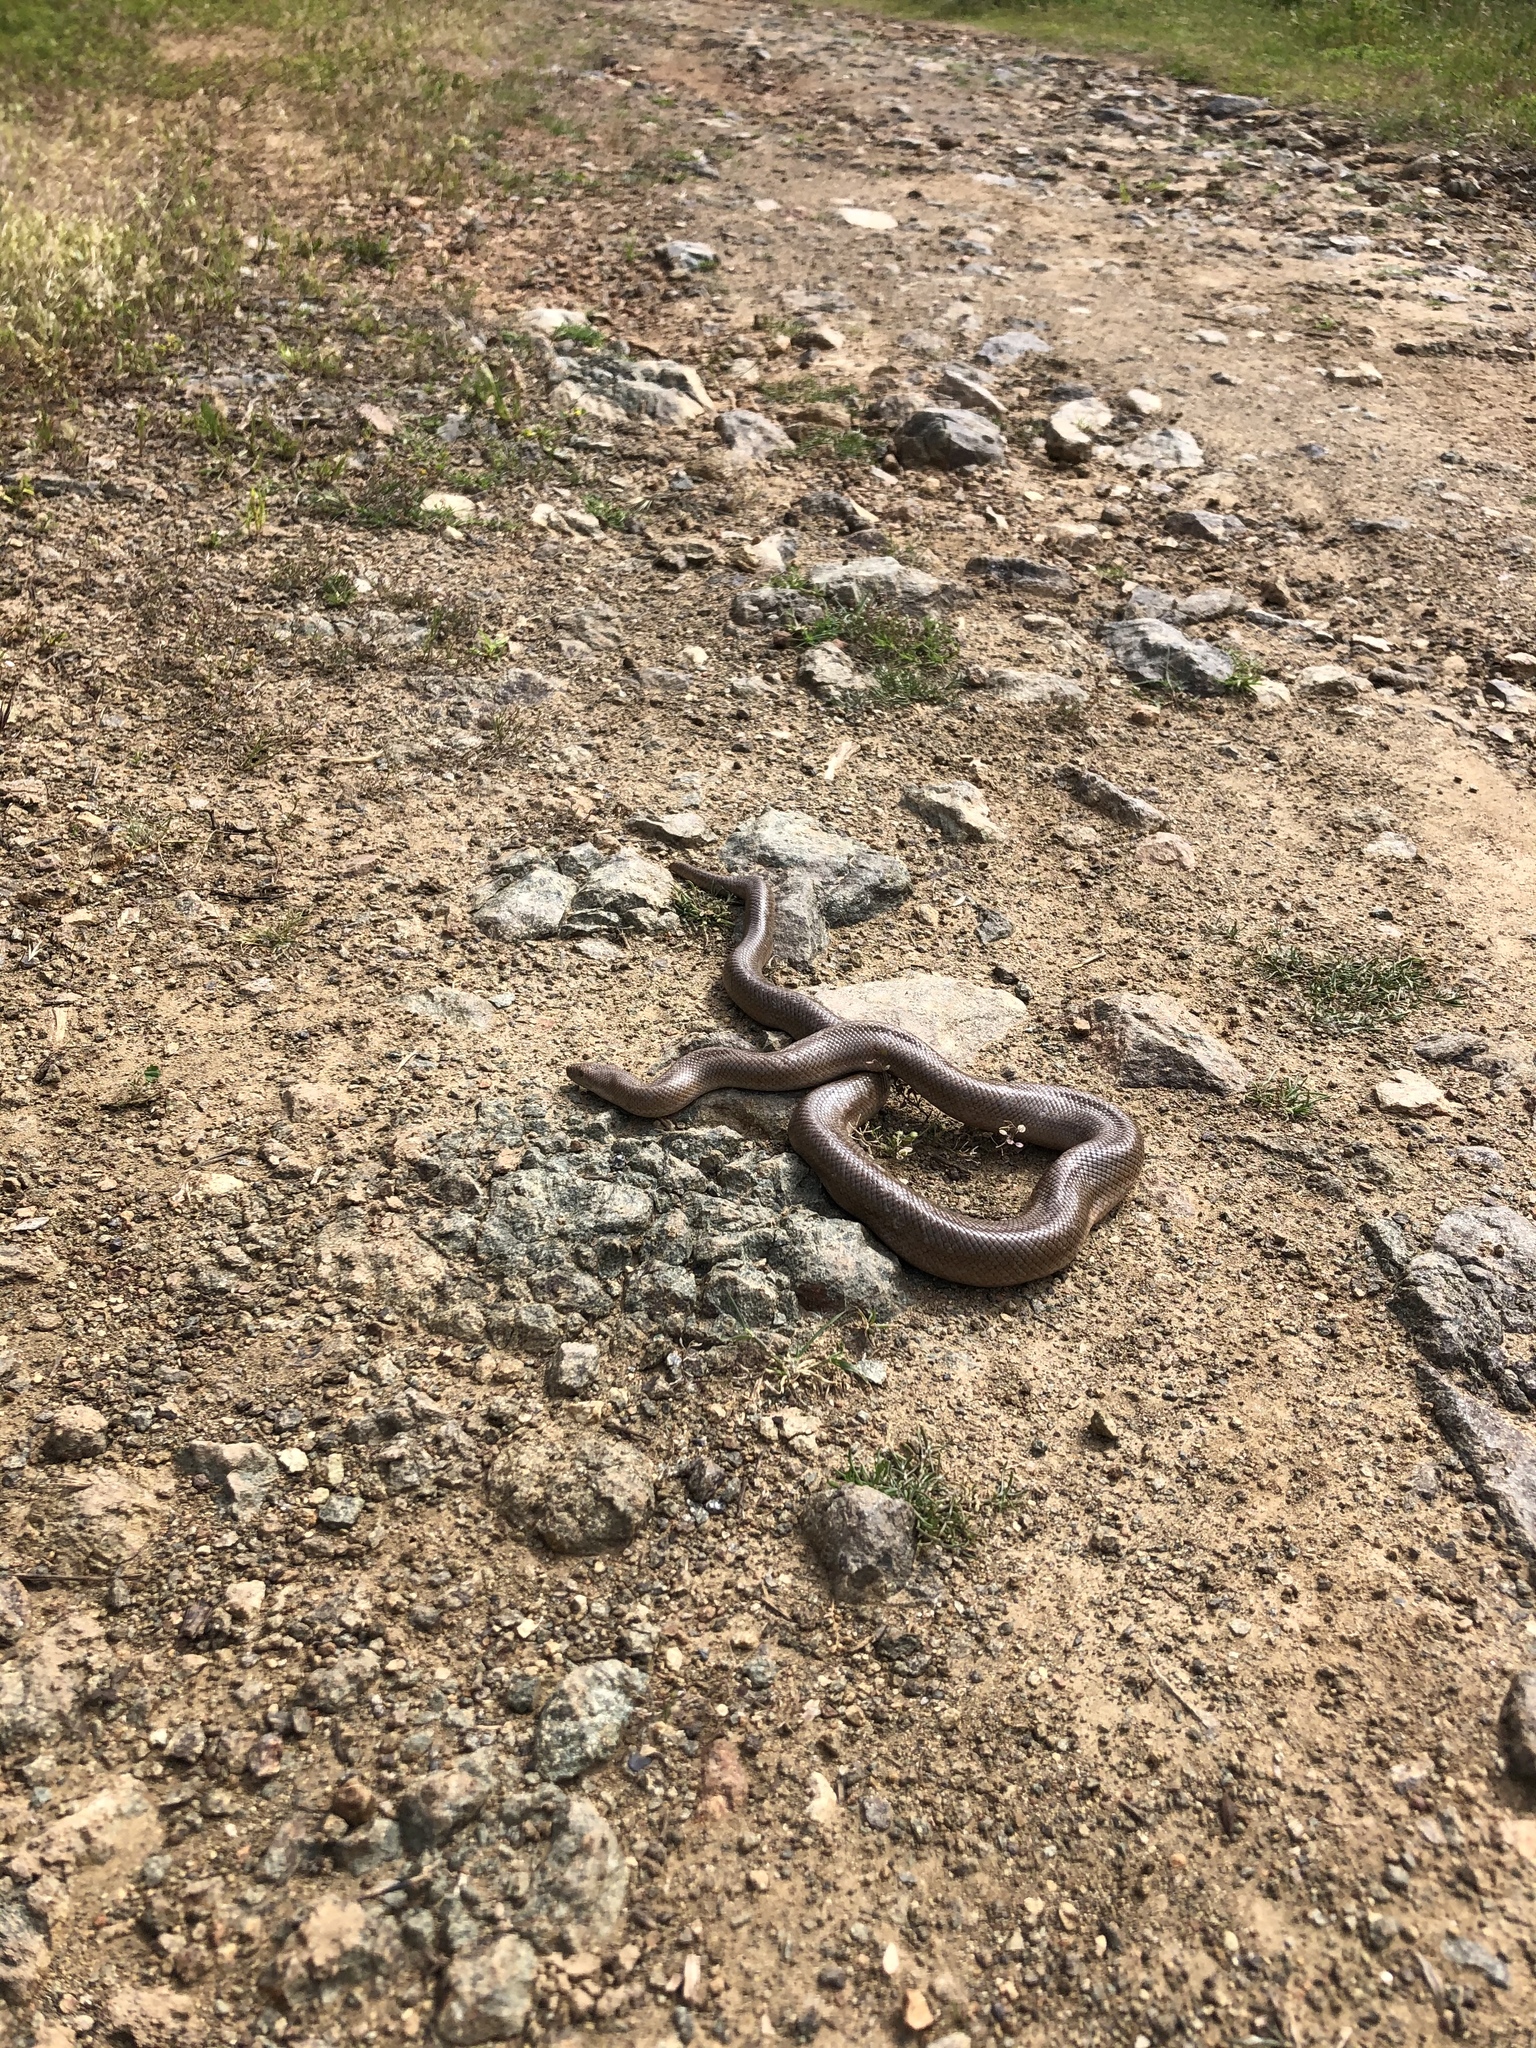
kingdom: Animalia
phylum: Chordata
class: Squamata
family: Boidae
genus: Lichanura
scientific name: Lichanura trivirgata
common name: Rosy boa
